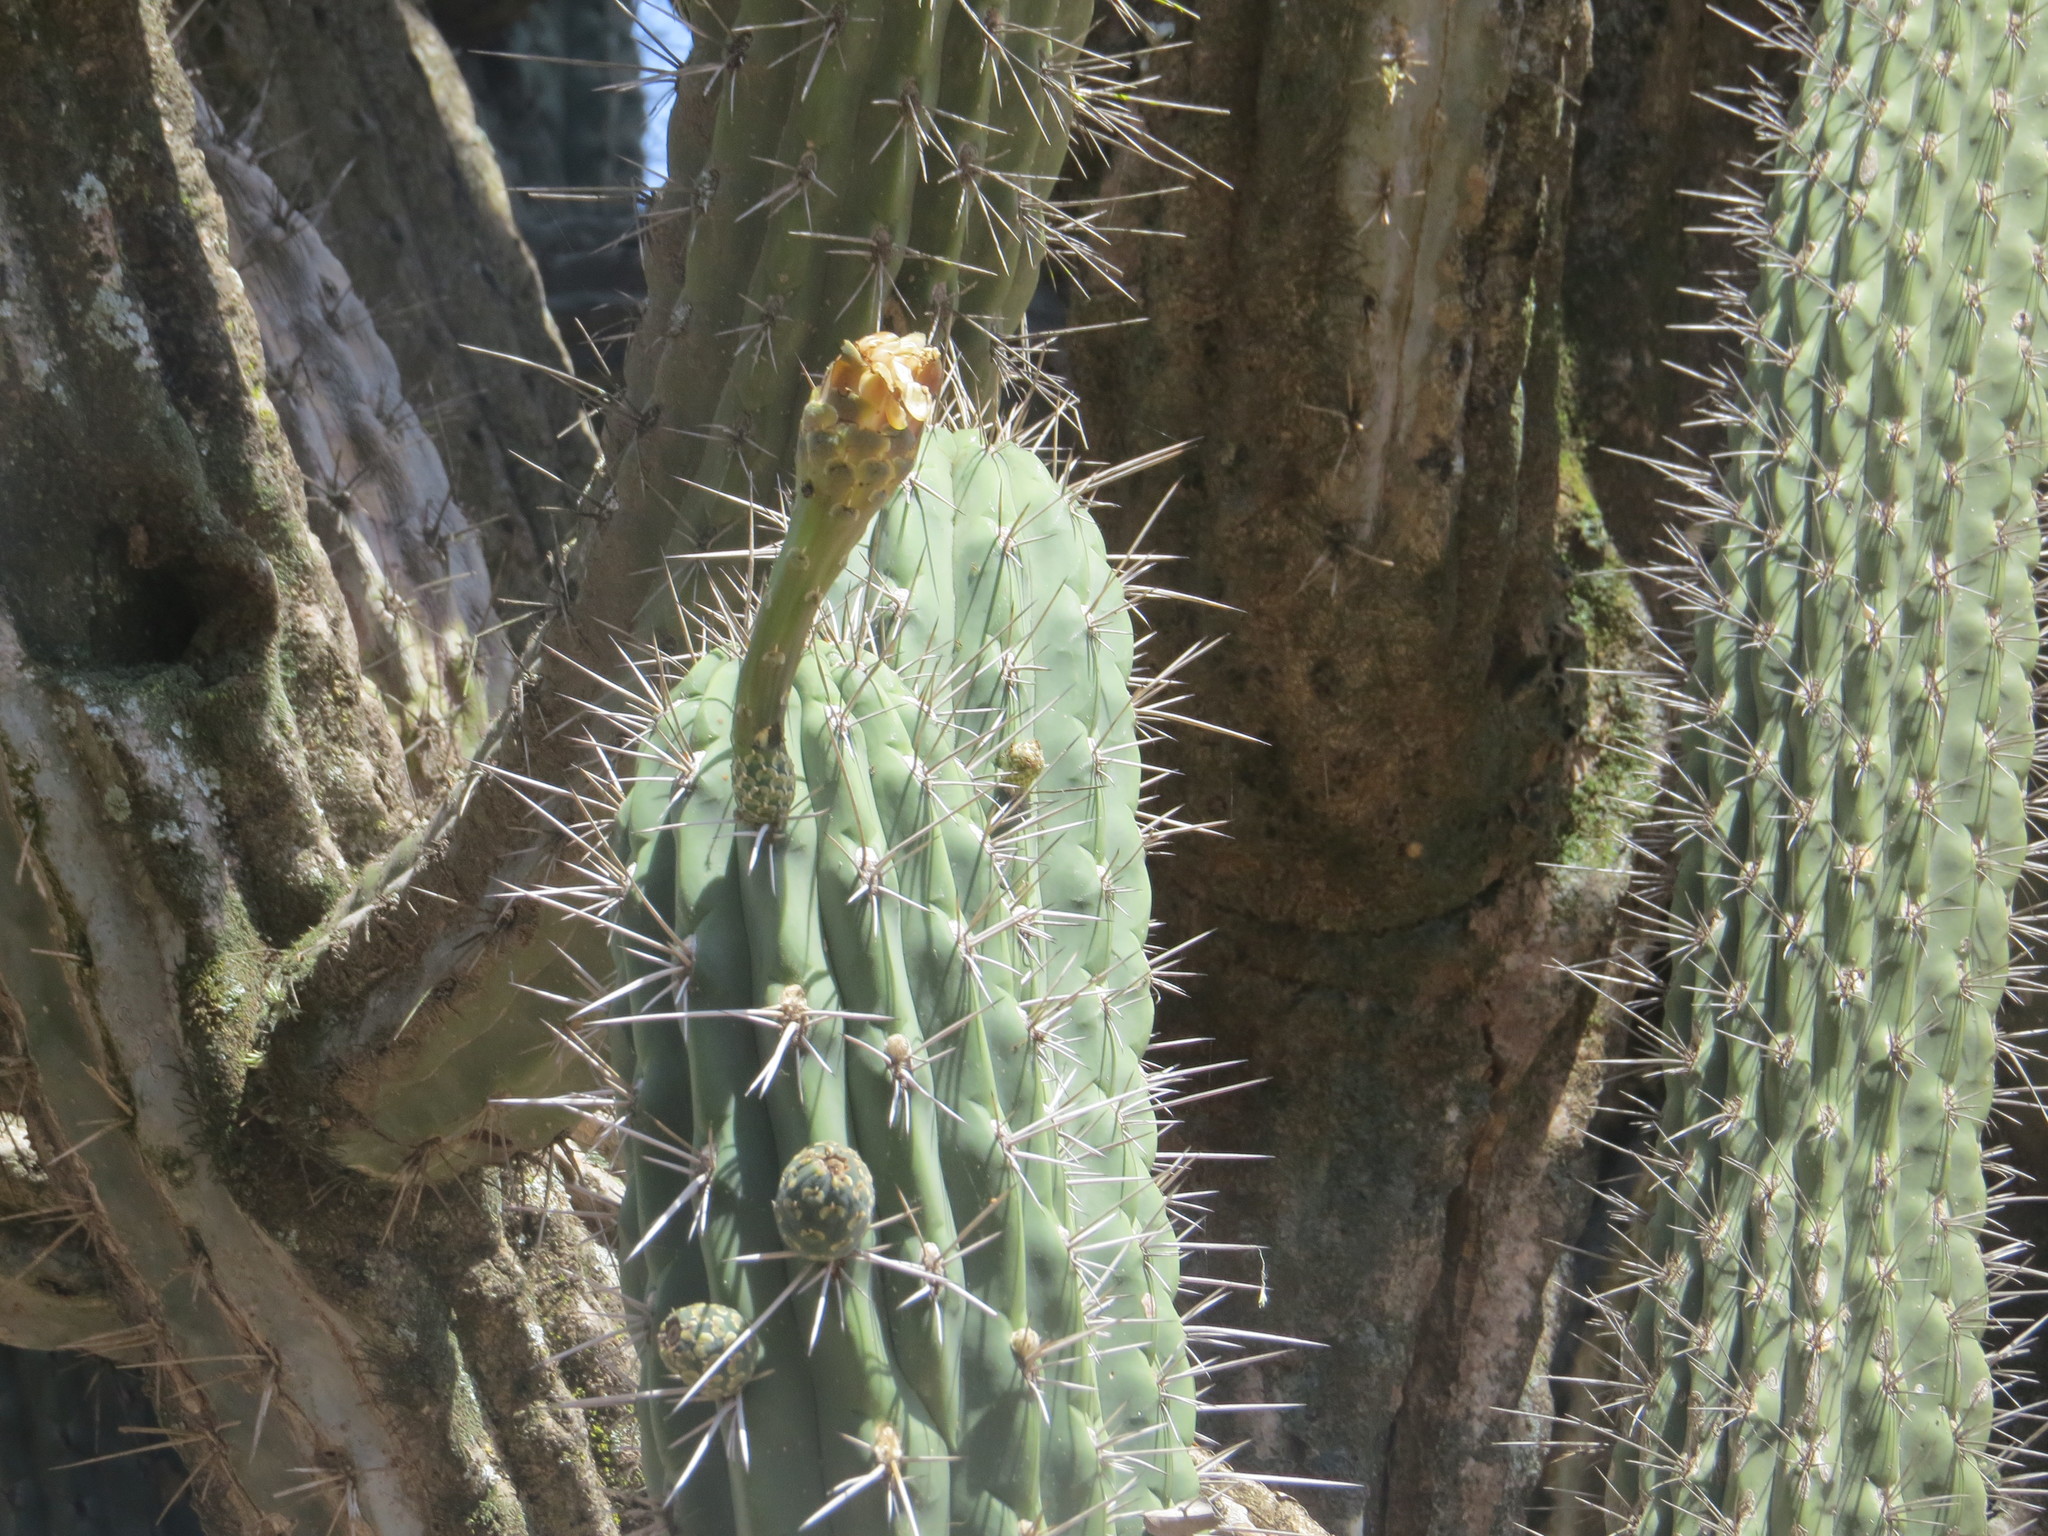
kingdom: Plantae
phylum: Tracheophyta
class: Magnoliopsida
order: Caryophyllales
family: Cactaceae
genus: Stetsonia
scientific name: Stetsonia coryne
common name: Toothpick cactus
